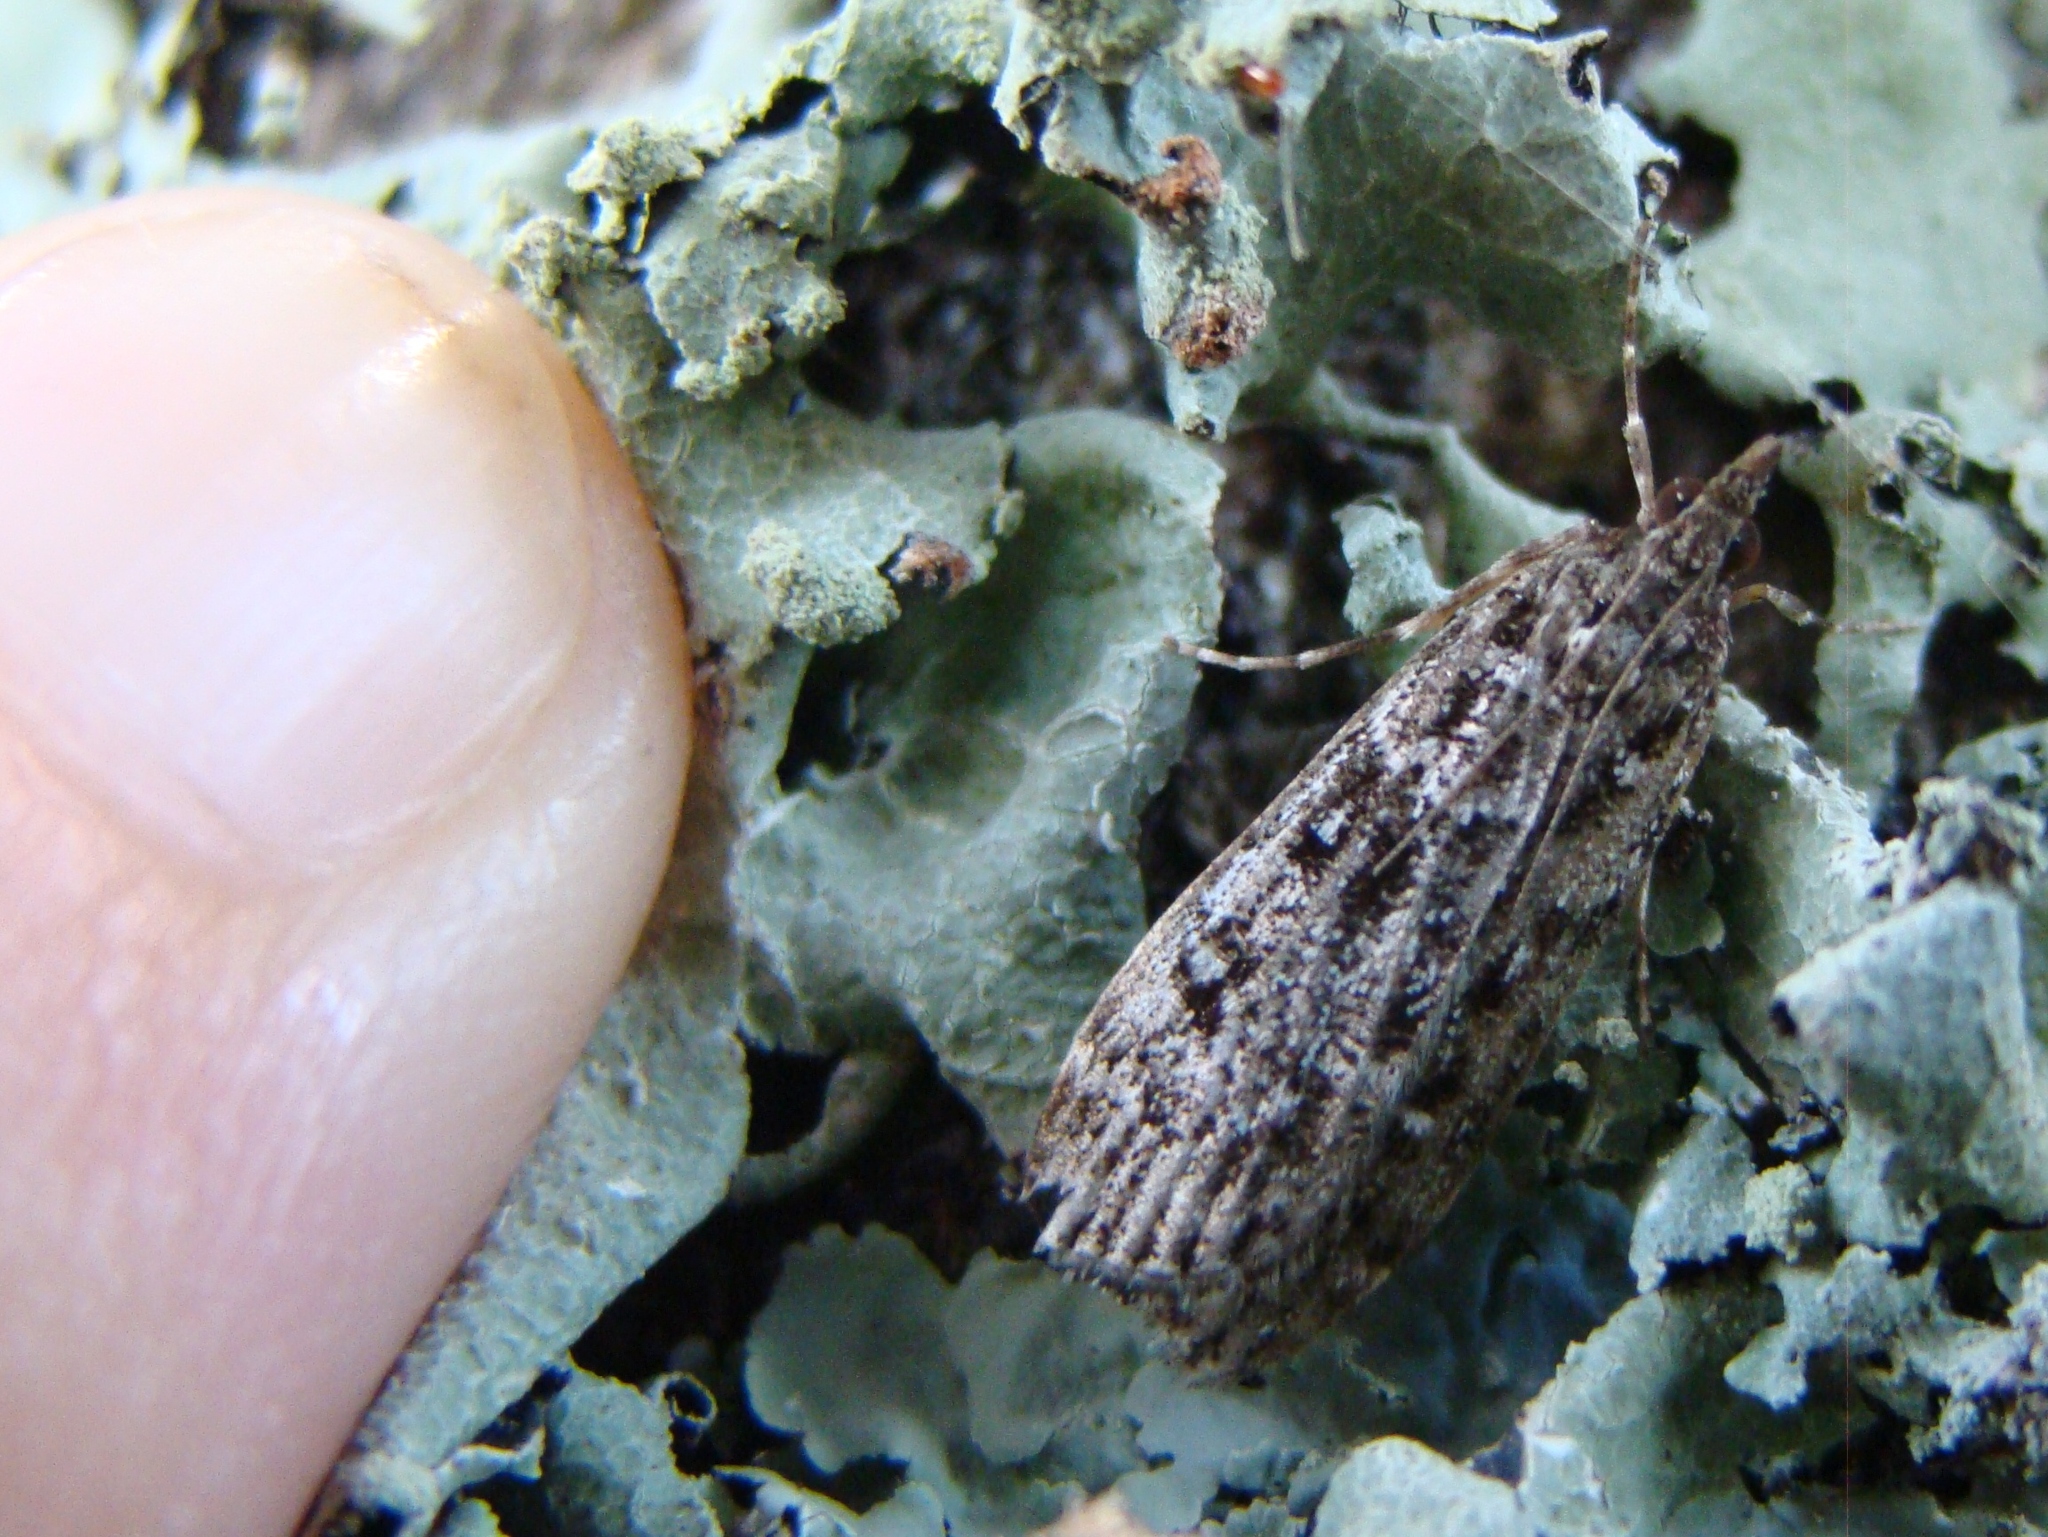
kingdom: Animalia
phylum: Arthropoda
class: Insecta
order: Lepidoptera
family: Crambidae
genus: Eudonia
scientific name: Eudonia philerga
